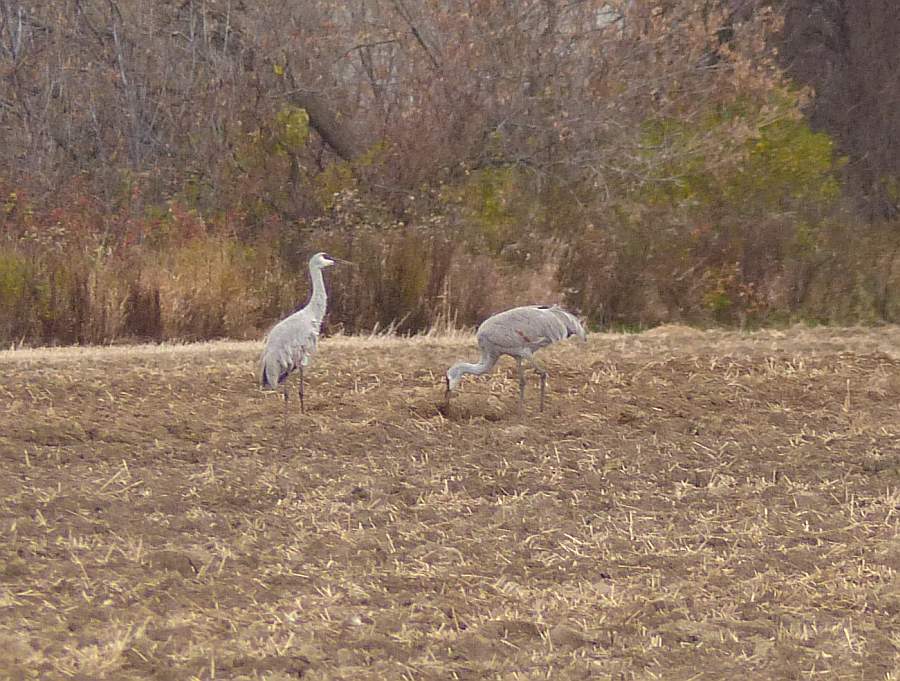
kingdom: Animalia
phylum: Chordata
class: Aves
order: Gruiformes
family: Gruidae
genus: Grus
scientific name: Grus canadensis
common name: Sandhill crane
